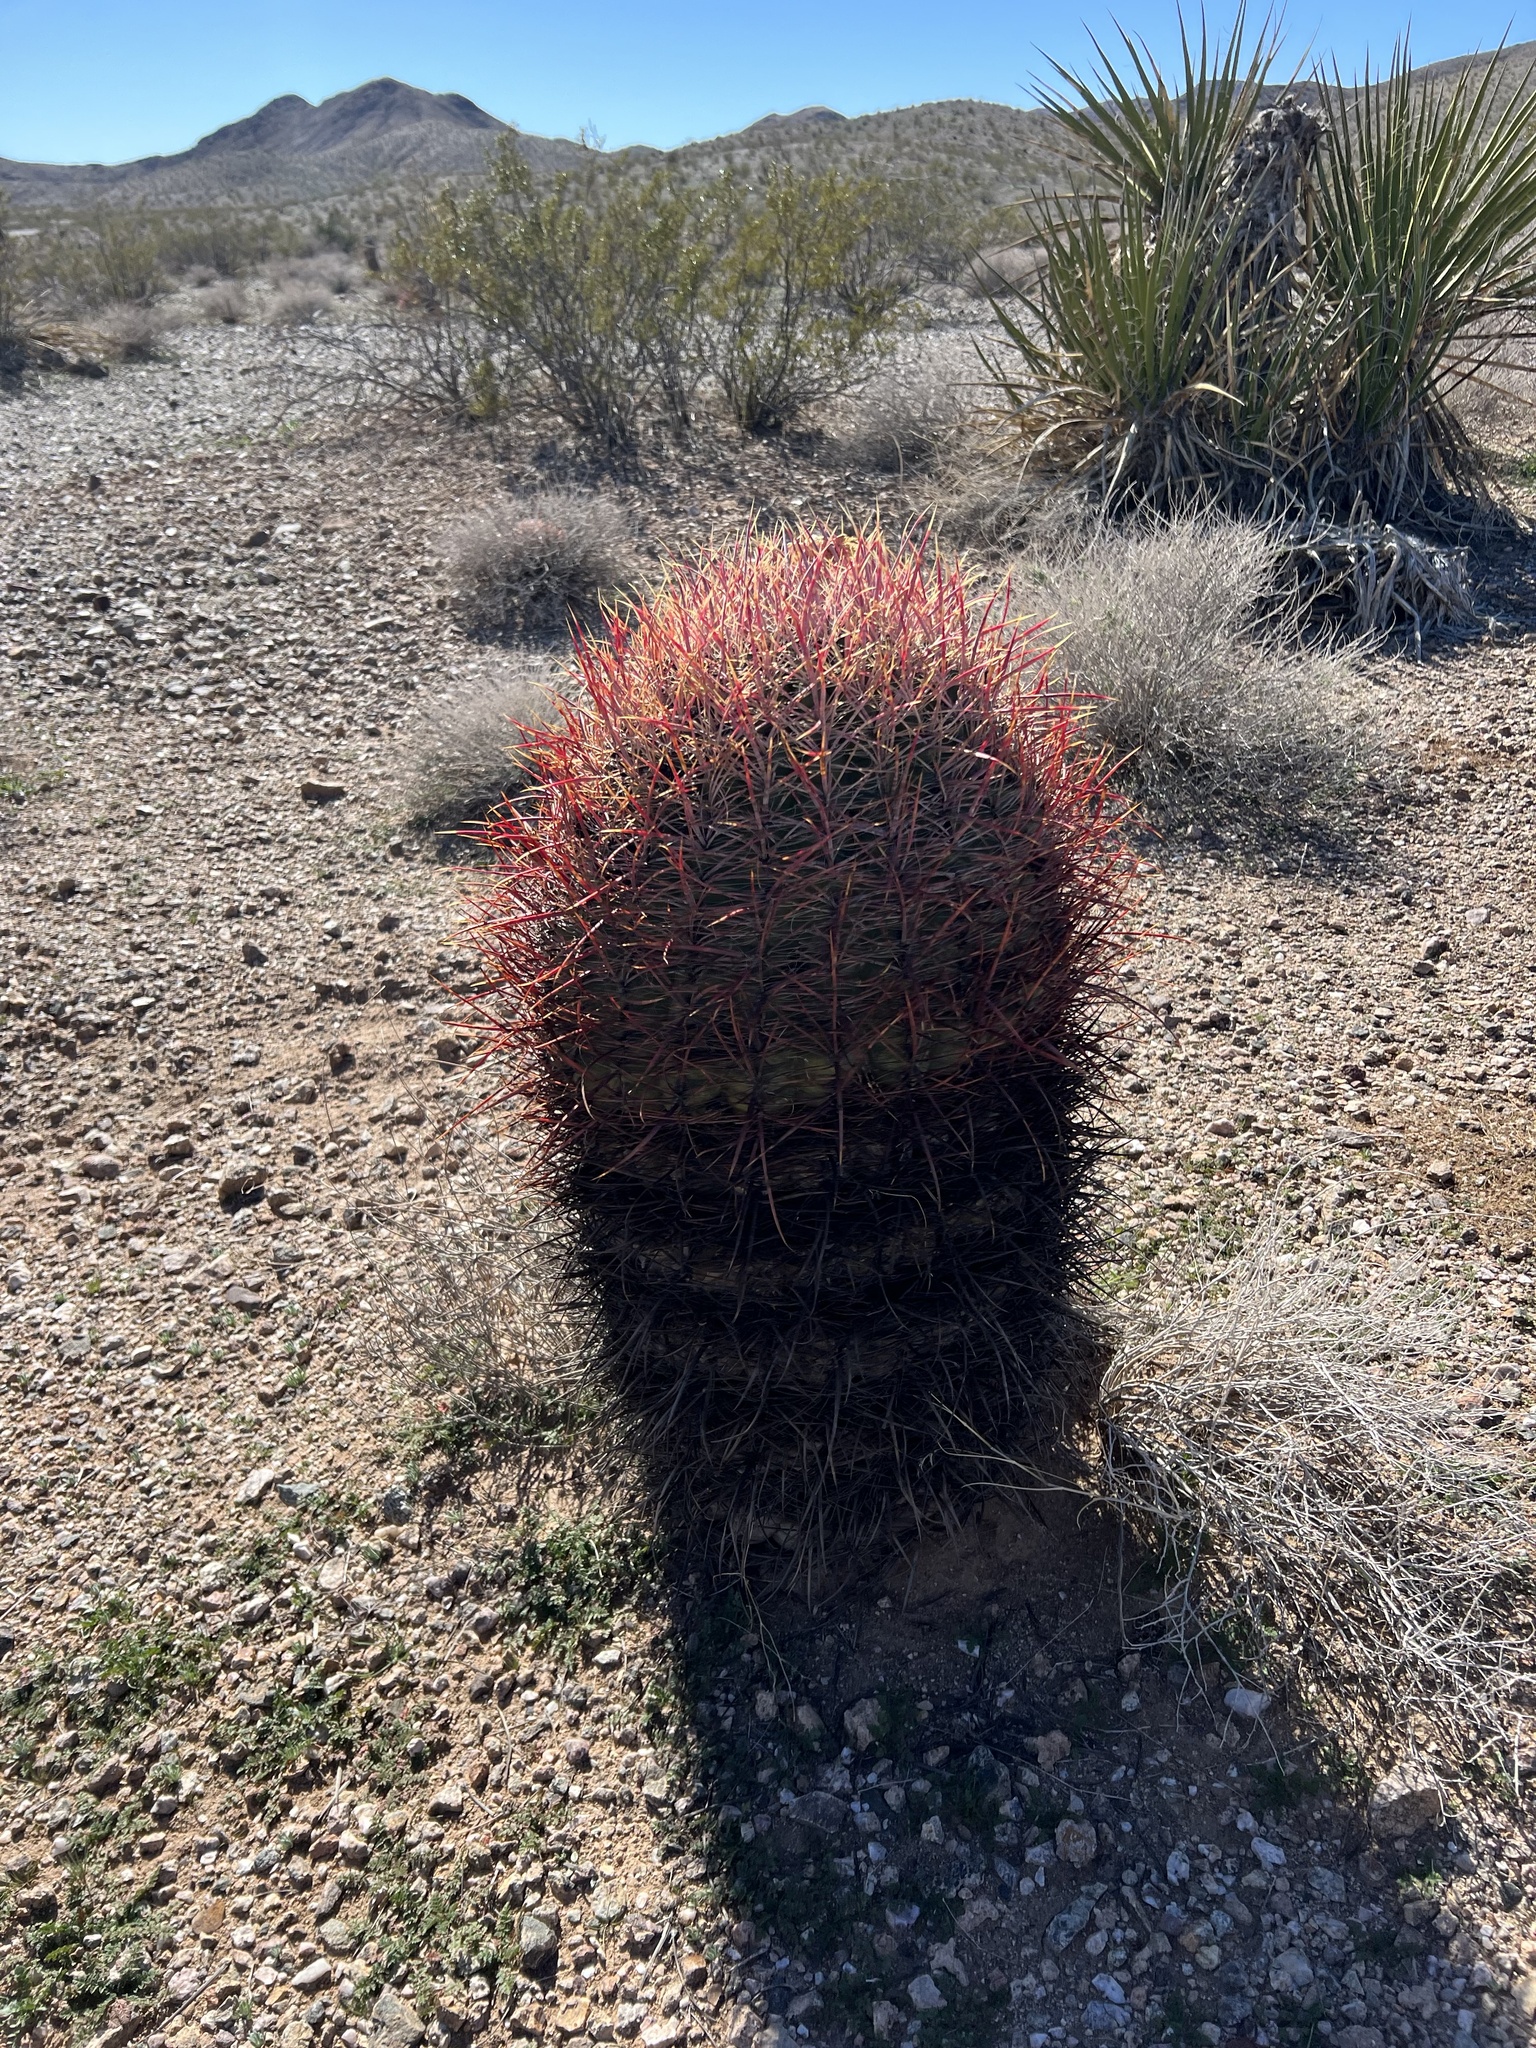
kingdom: Plantae
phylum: Tracheophyta
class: Magnoliopsida
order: Caryophyllales
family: Cactaceae
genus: Ferocactus
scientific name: Ferocactus cylindraceus
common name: California barrel cactus
